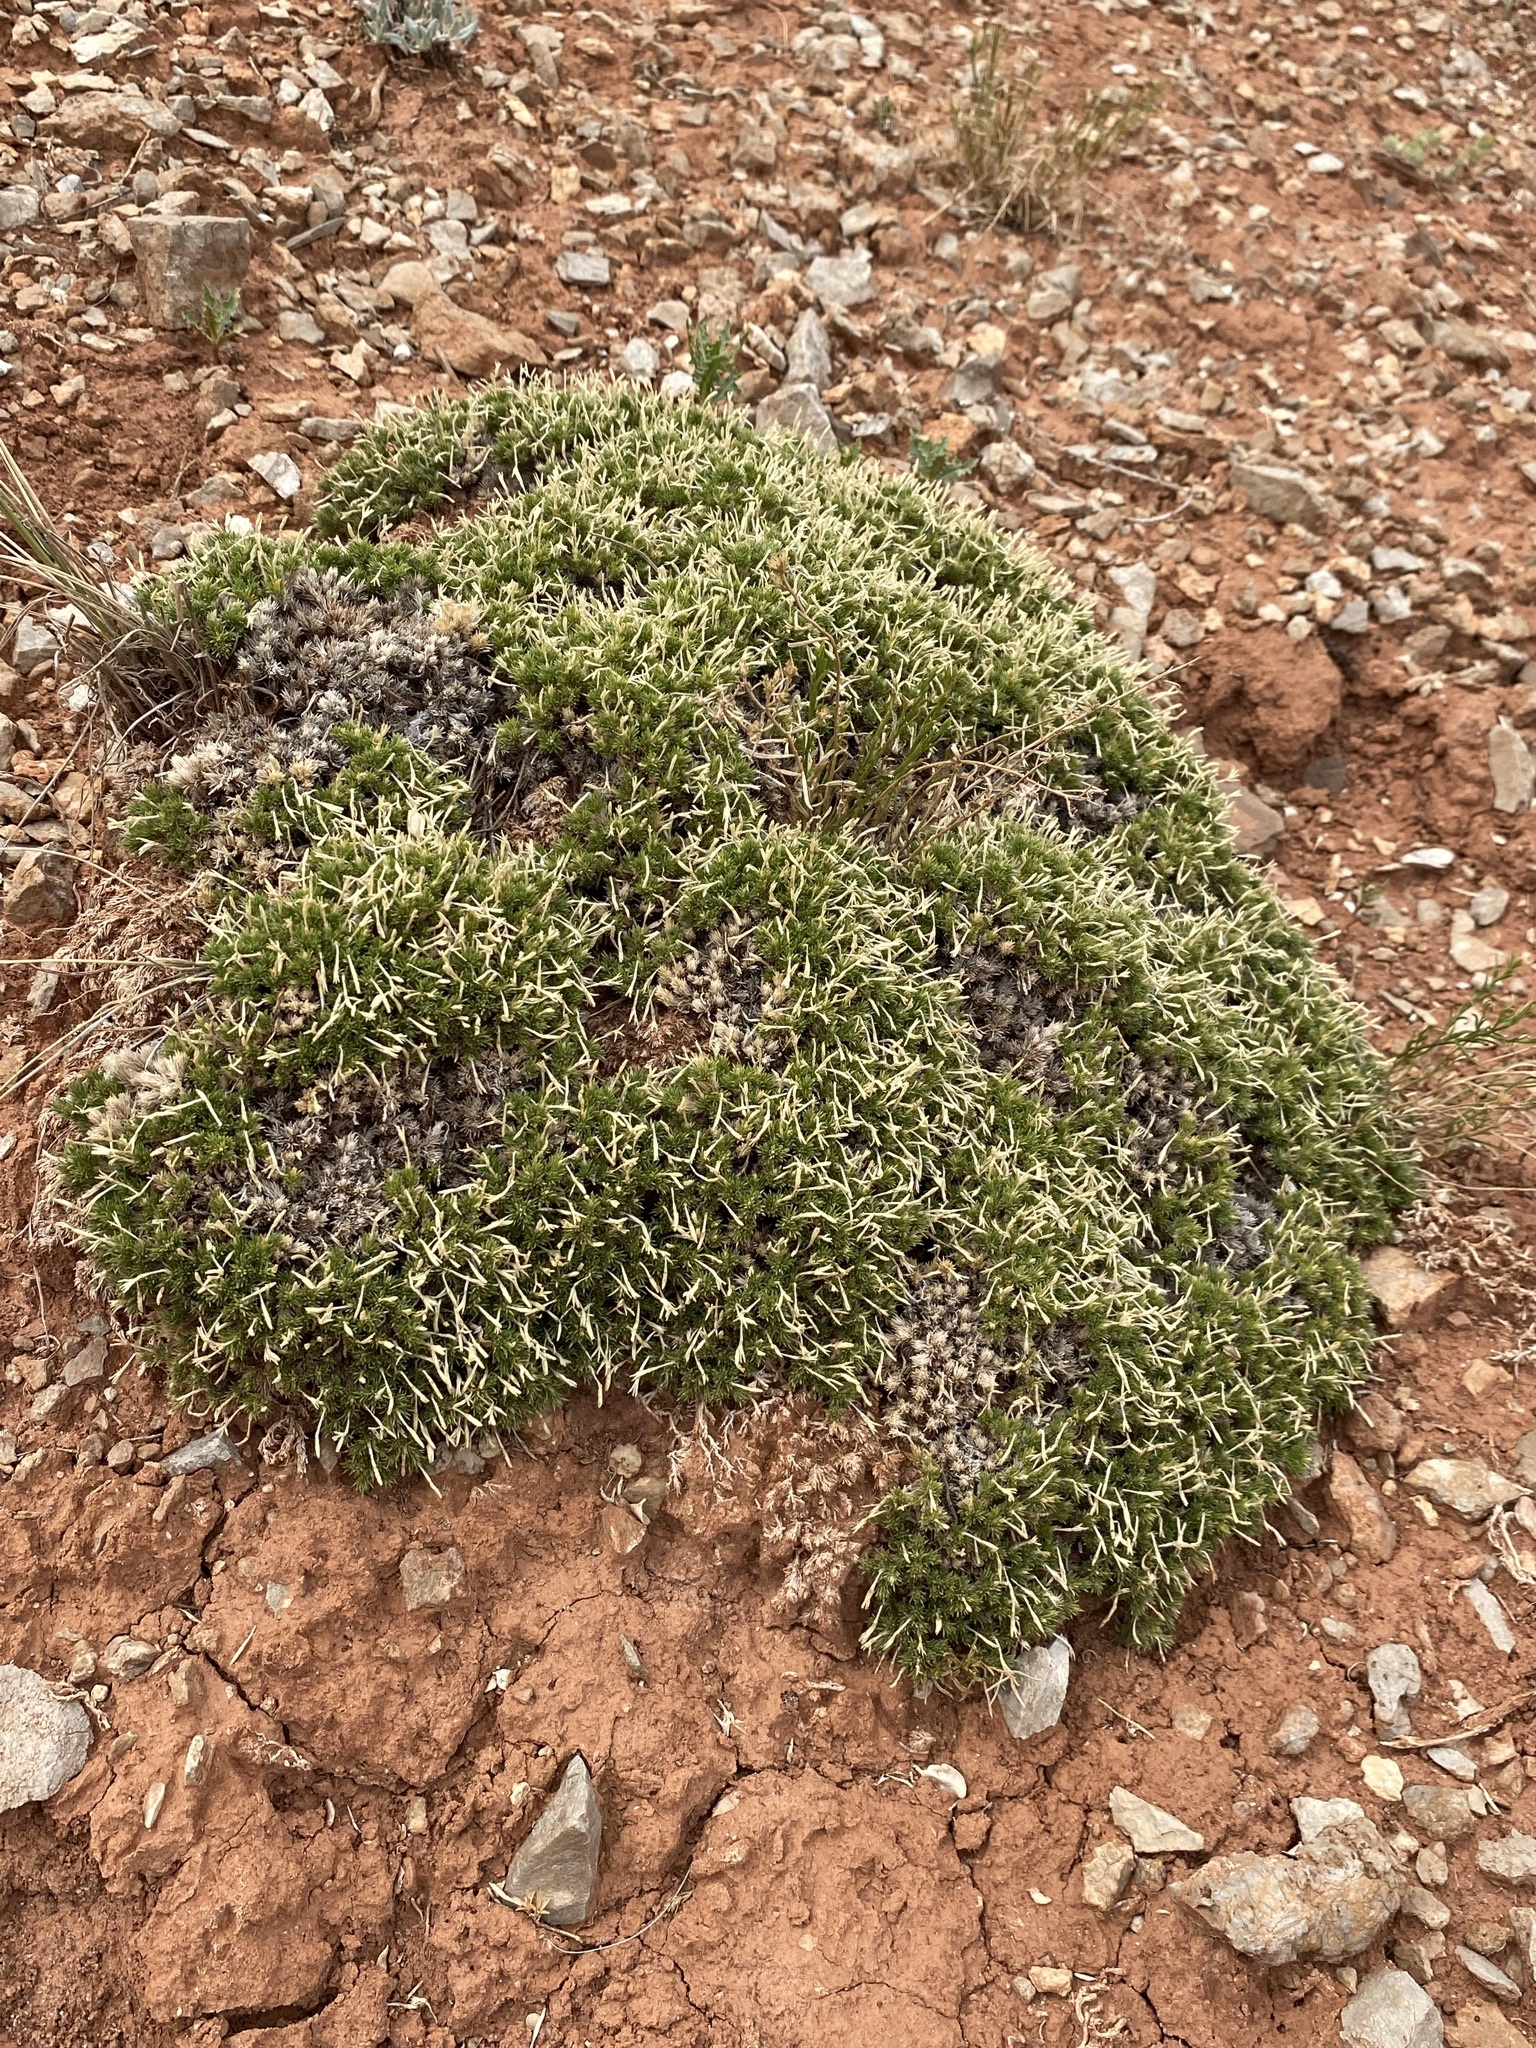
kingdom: Plantae
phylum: Tracheophyta
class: Magnoliopsida
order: Ericales
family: Polemoniaceae
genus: Linanthus
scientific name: Linanthus caespitosus
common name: Mat prickly phlox
